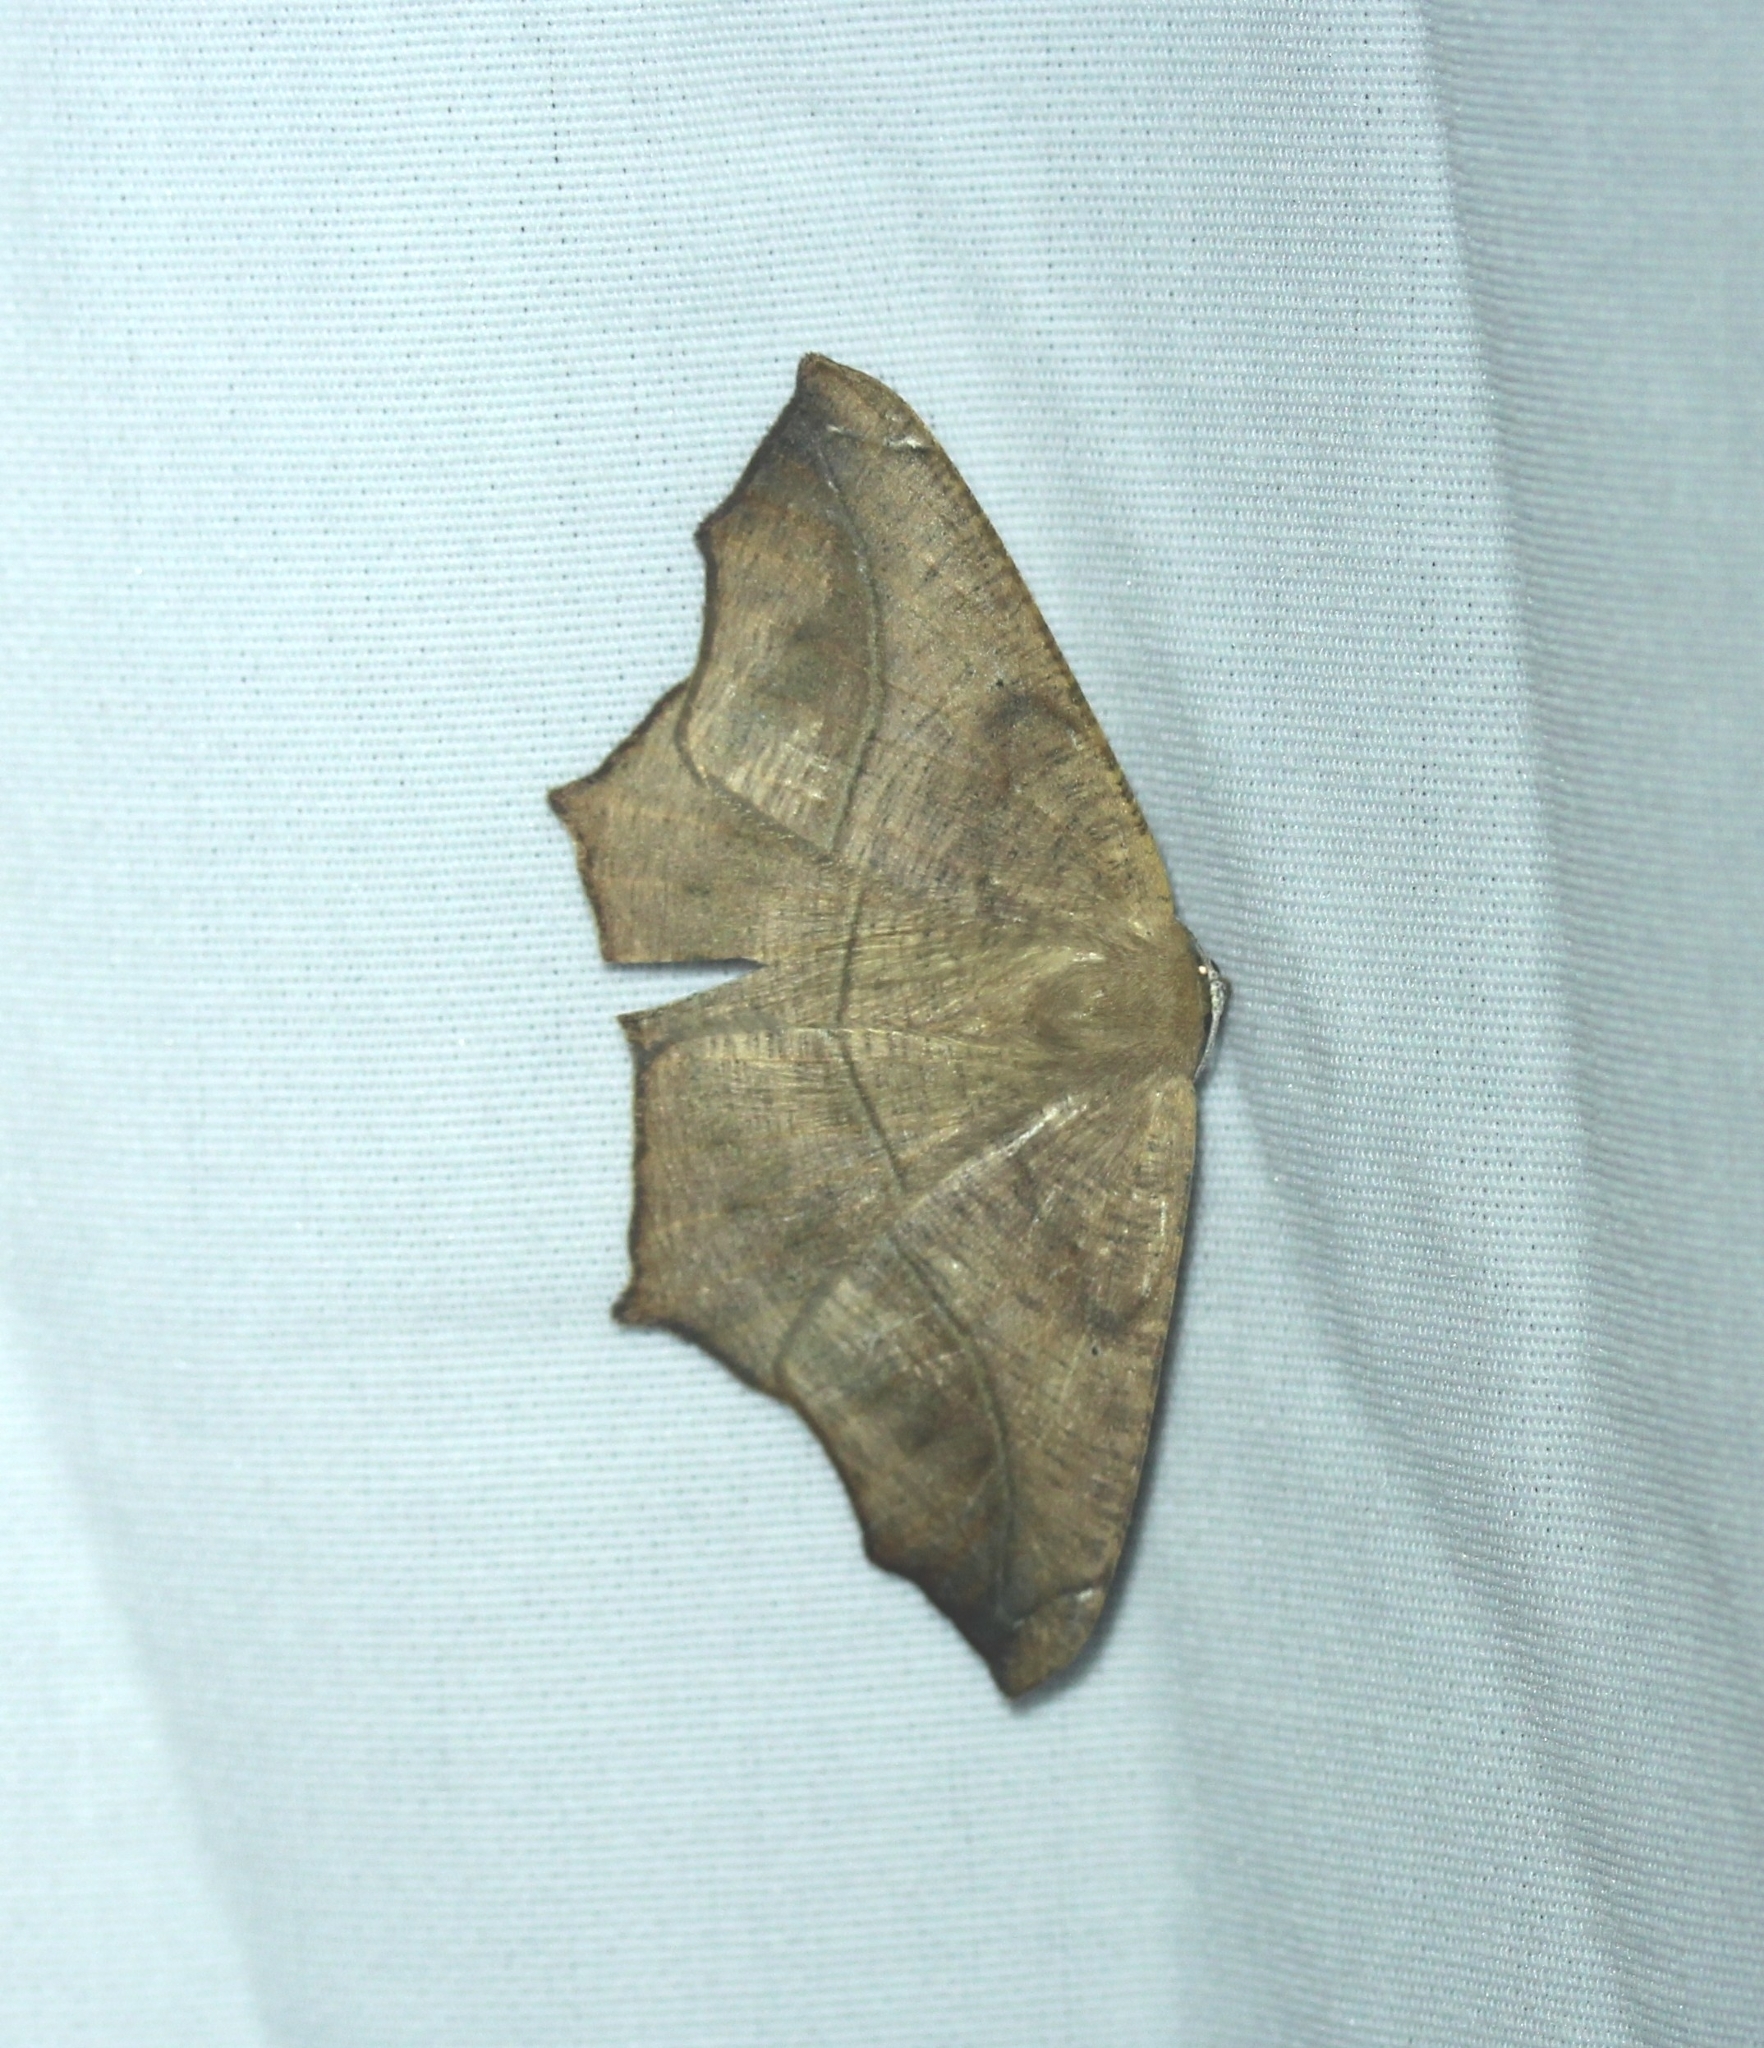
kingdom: Animalia
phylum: Arthropoda
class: Insecta
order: Lepidoptera
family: Geometridae
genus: Prochoerodes
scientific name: Prochoerodes lineola
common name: Large maple spanworm
